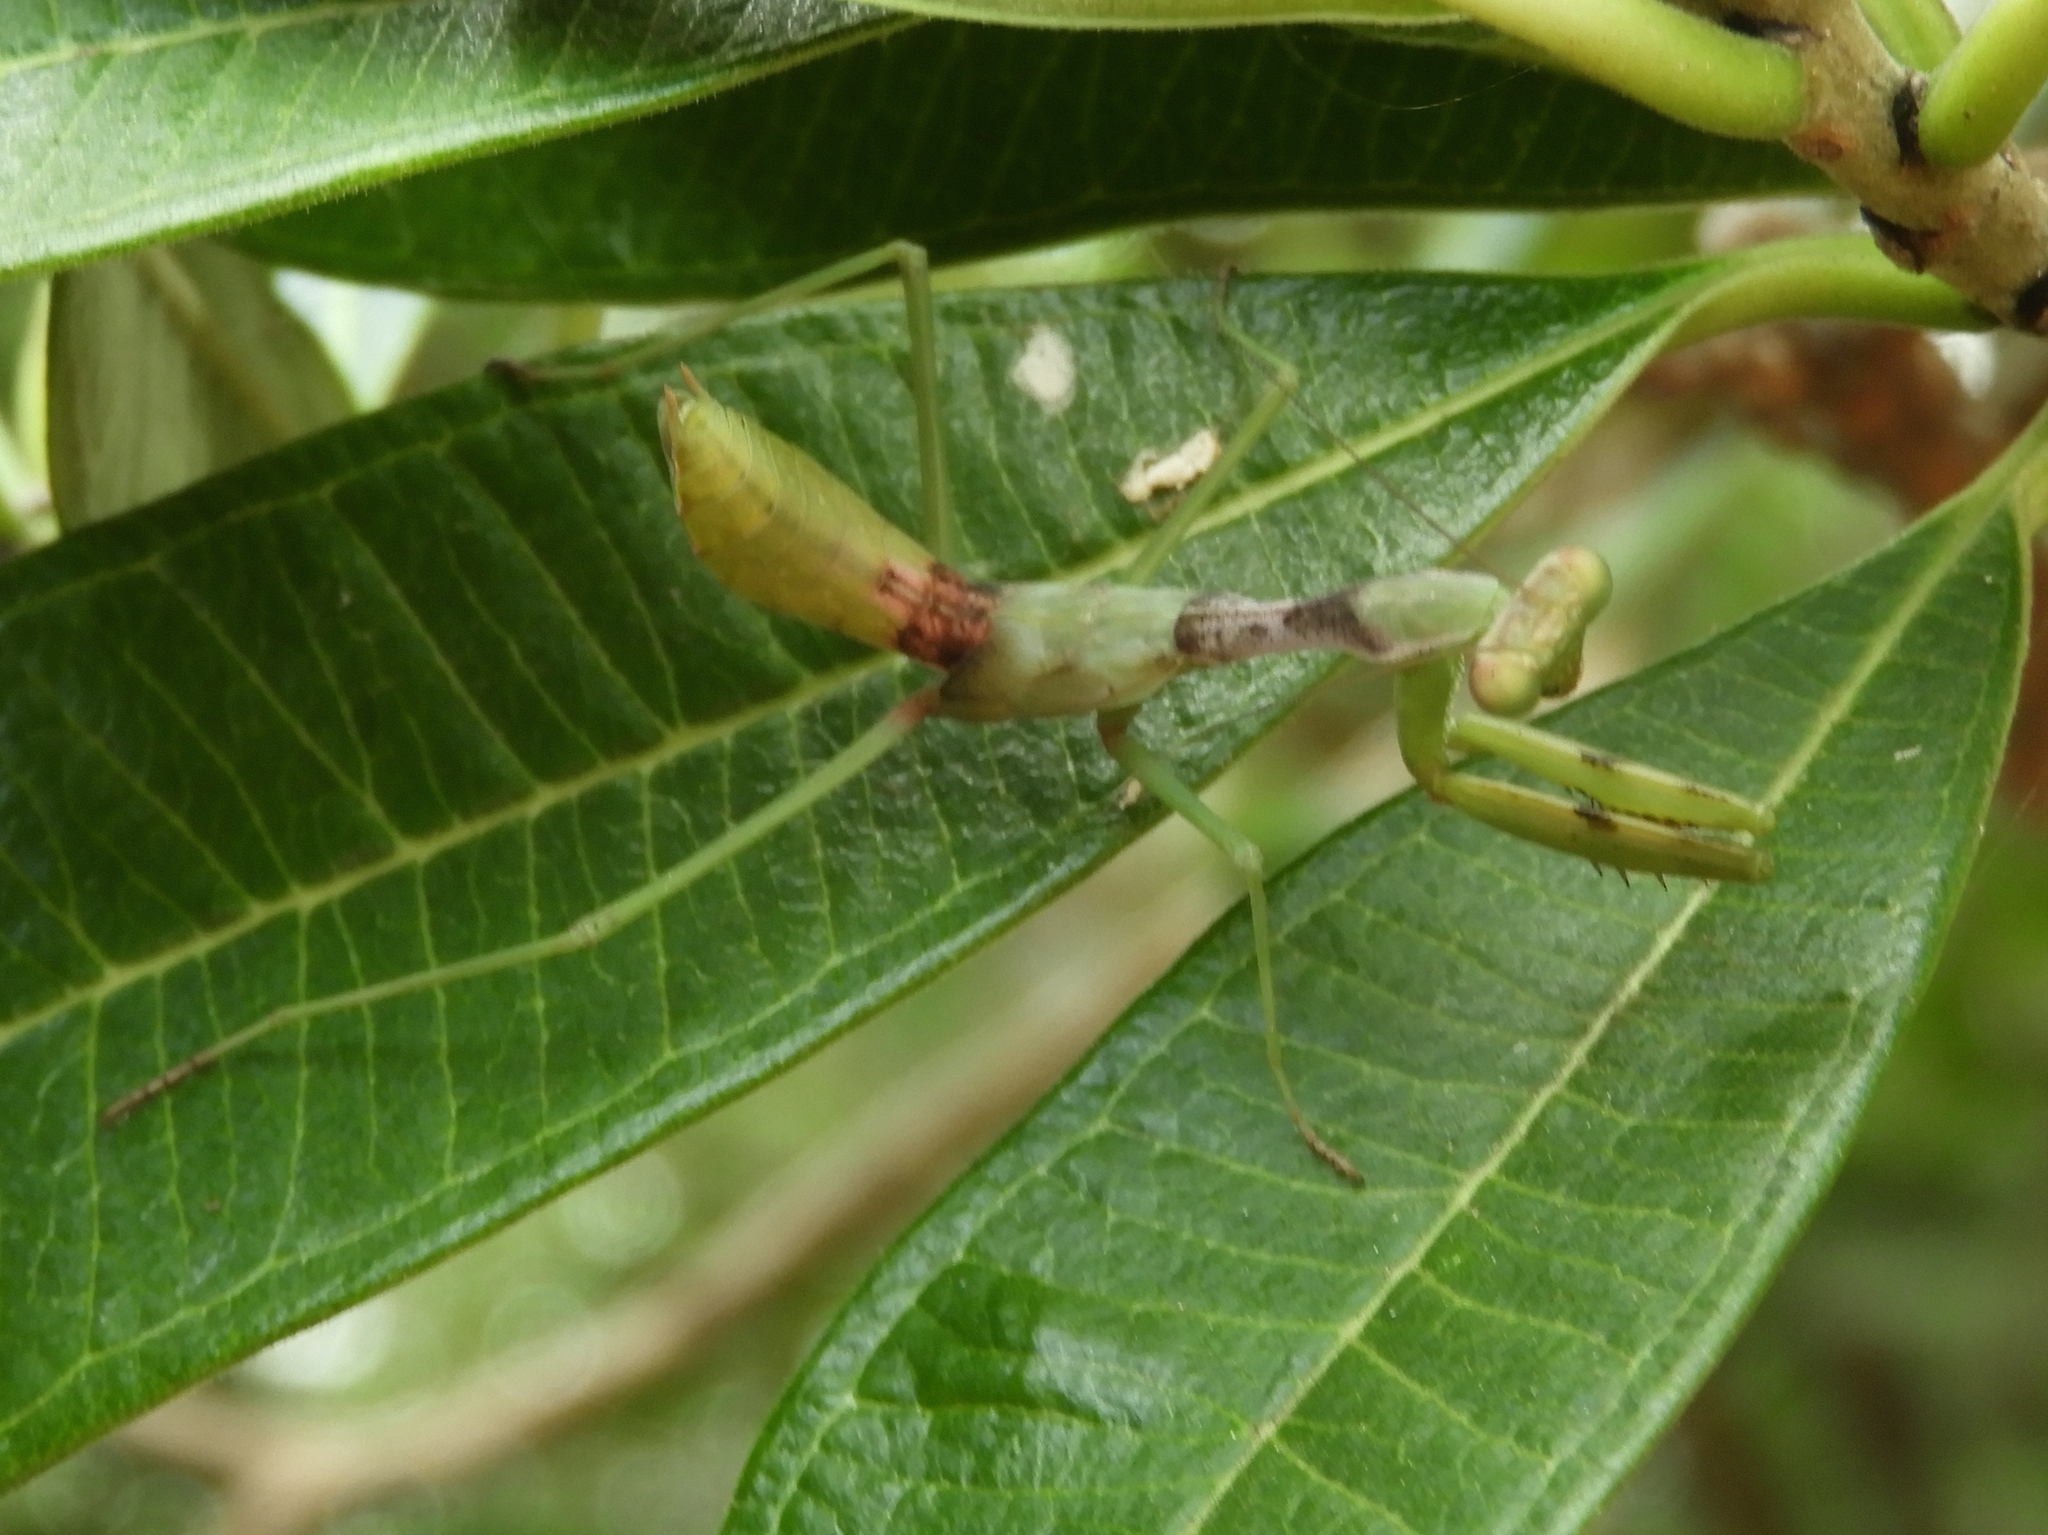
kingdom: Animalia
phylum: Arthropoda
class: Insecta
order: Mantodea
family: Mantidae
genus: Stagmomantis
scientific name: Stagmomantis limbata
